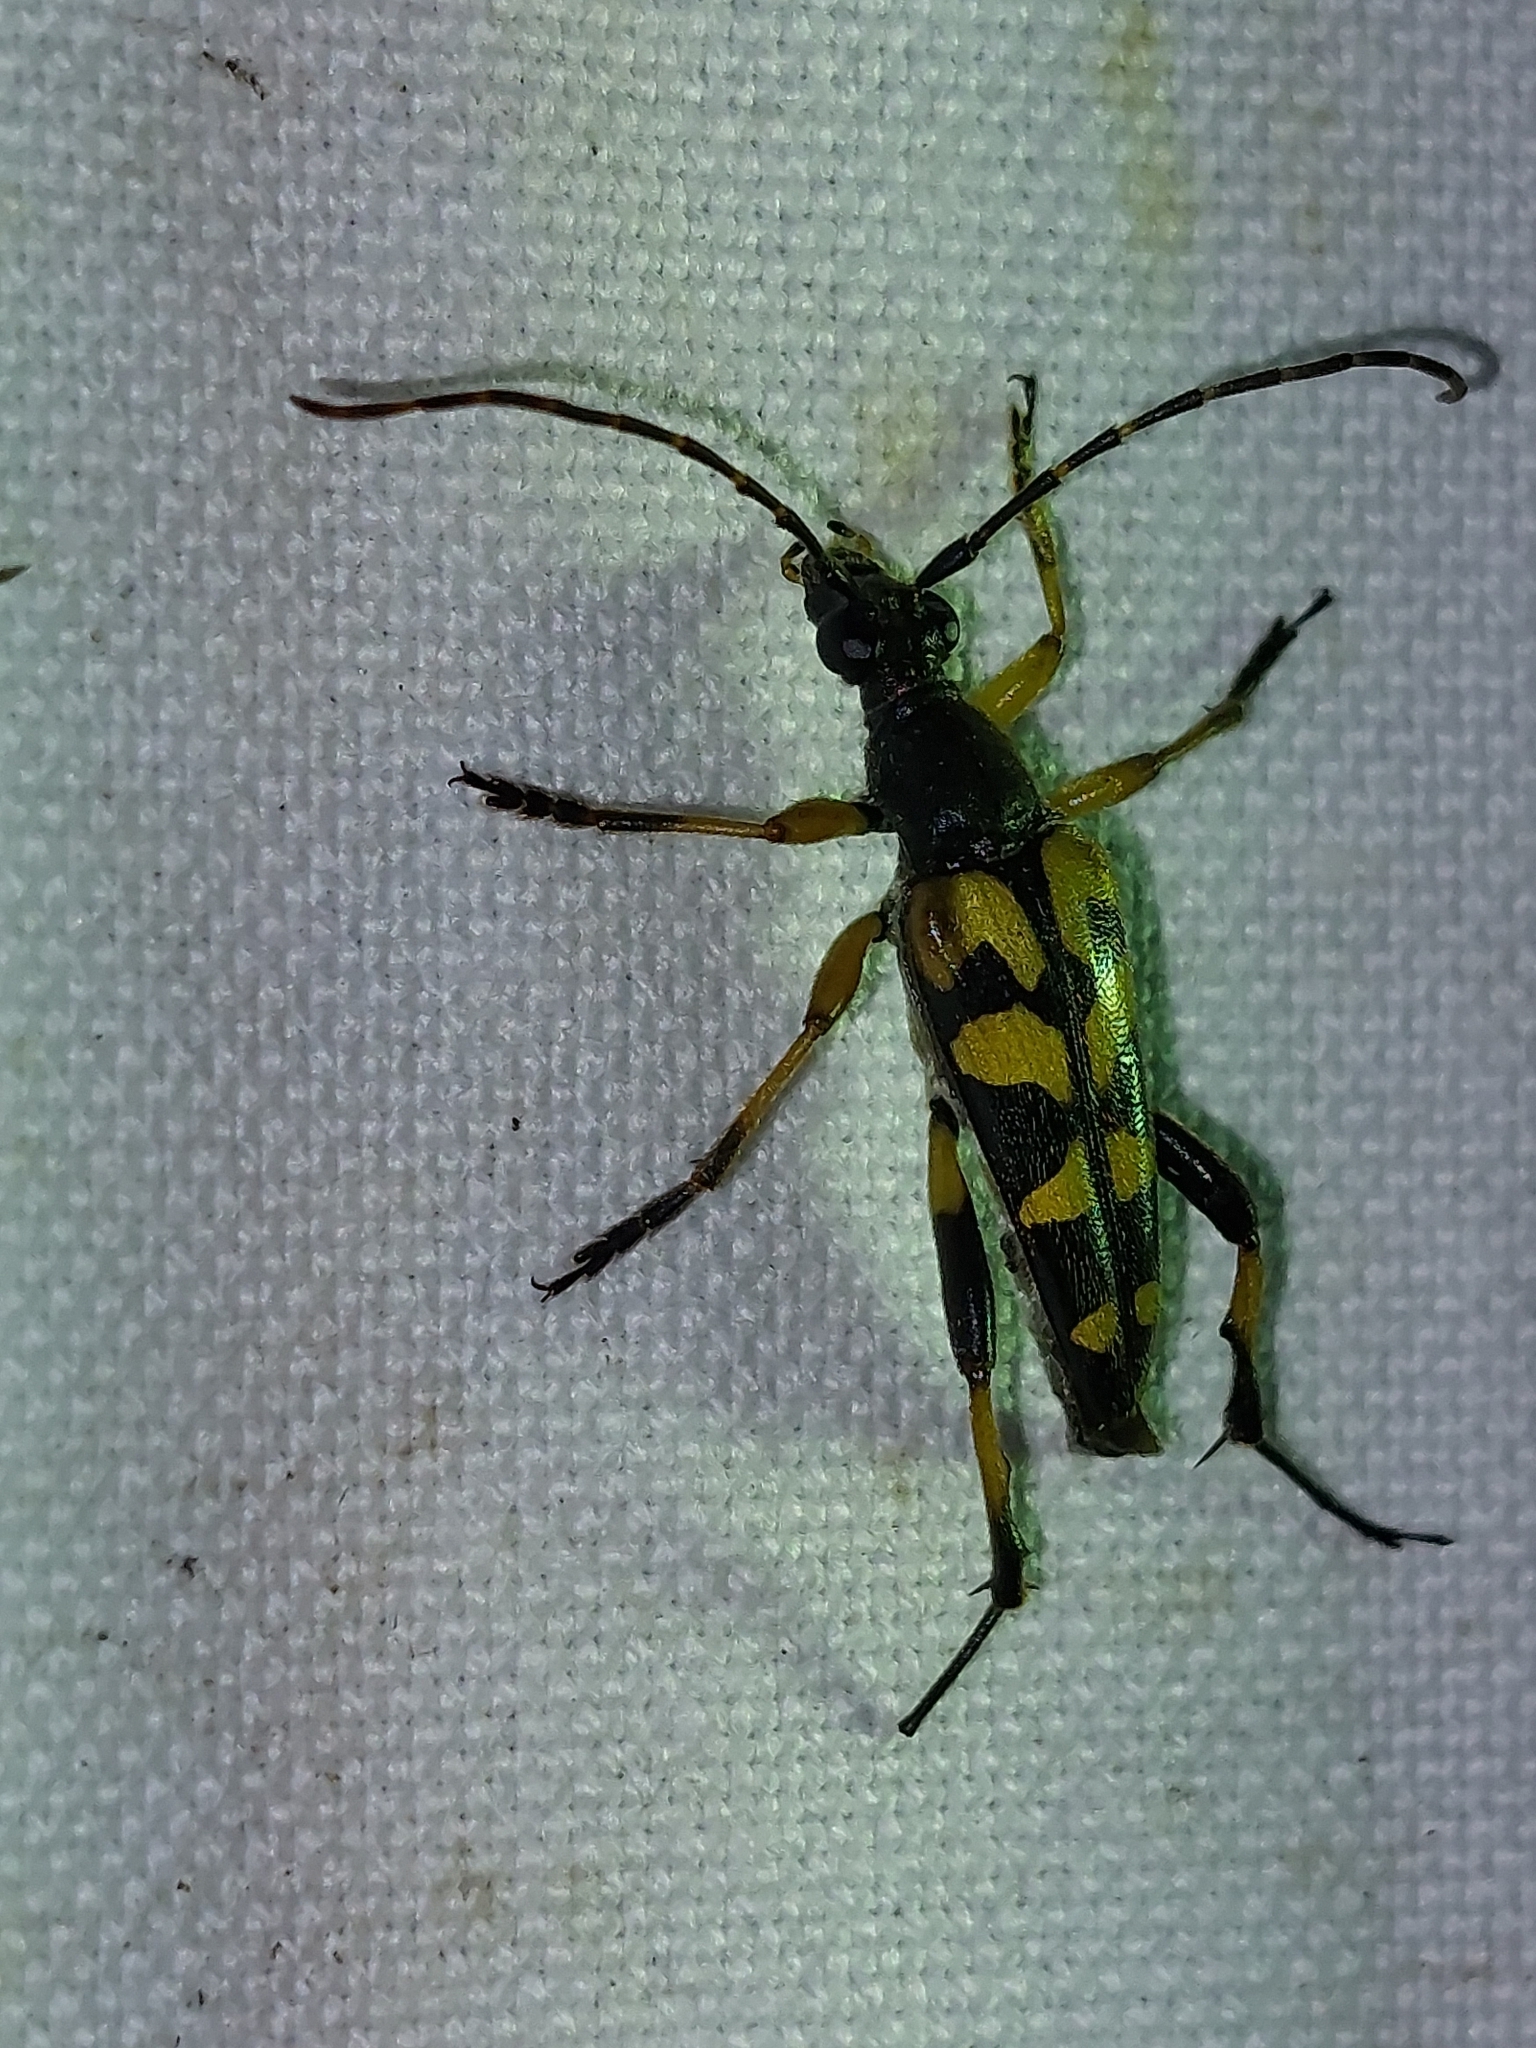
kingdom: Animalia
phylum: Arthropoda
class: Insecta
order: Coleoptera
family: Cerambycidae
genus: Rutpela
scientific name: Rutpela maculata
